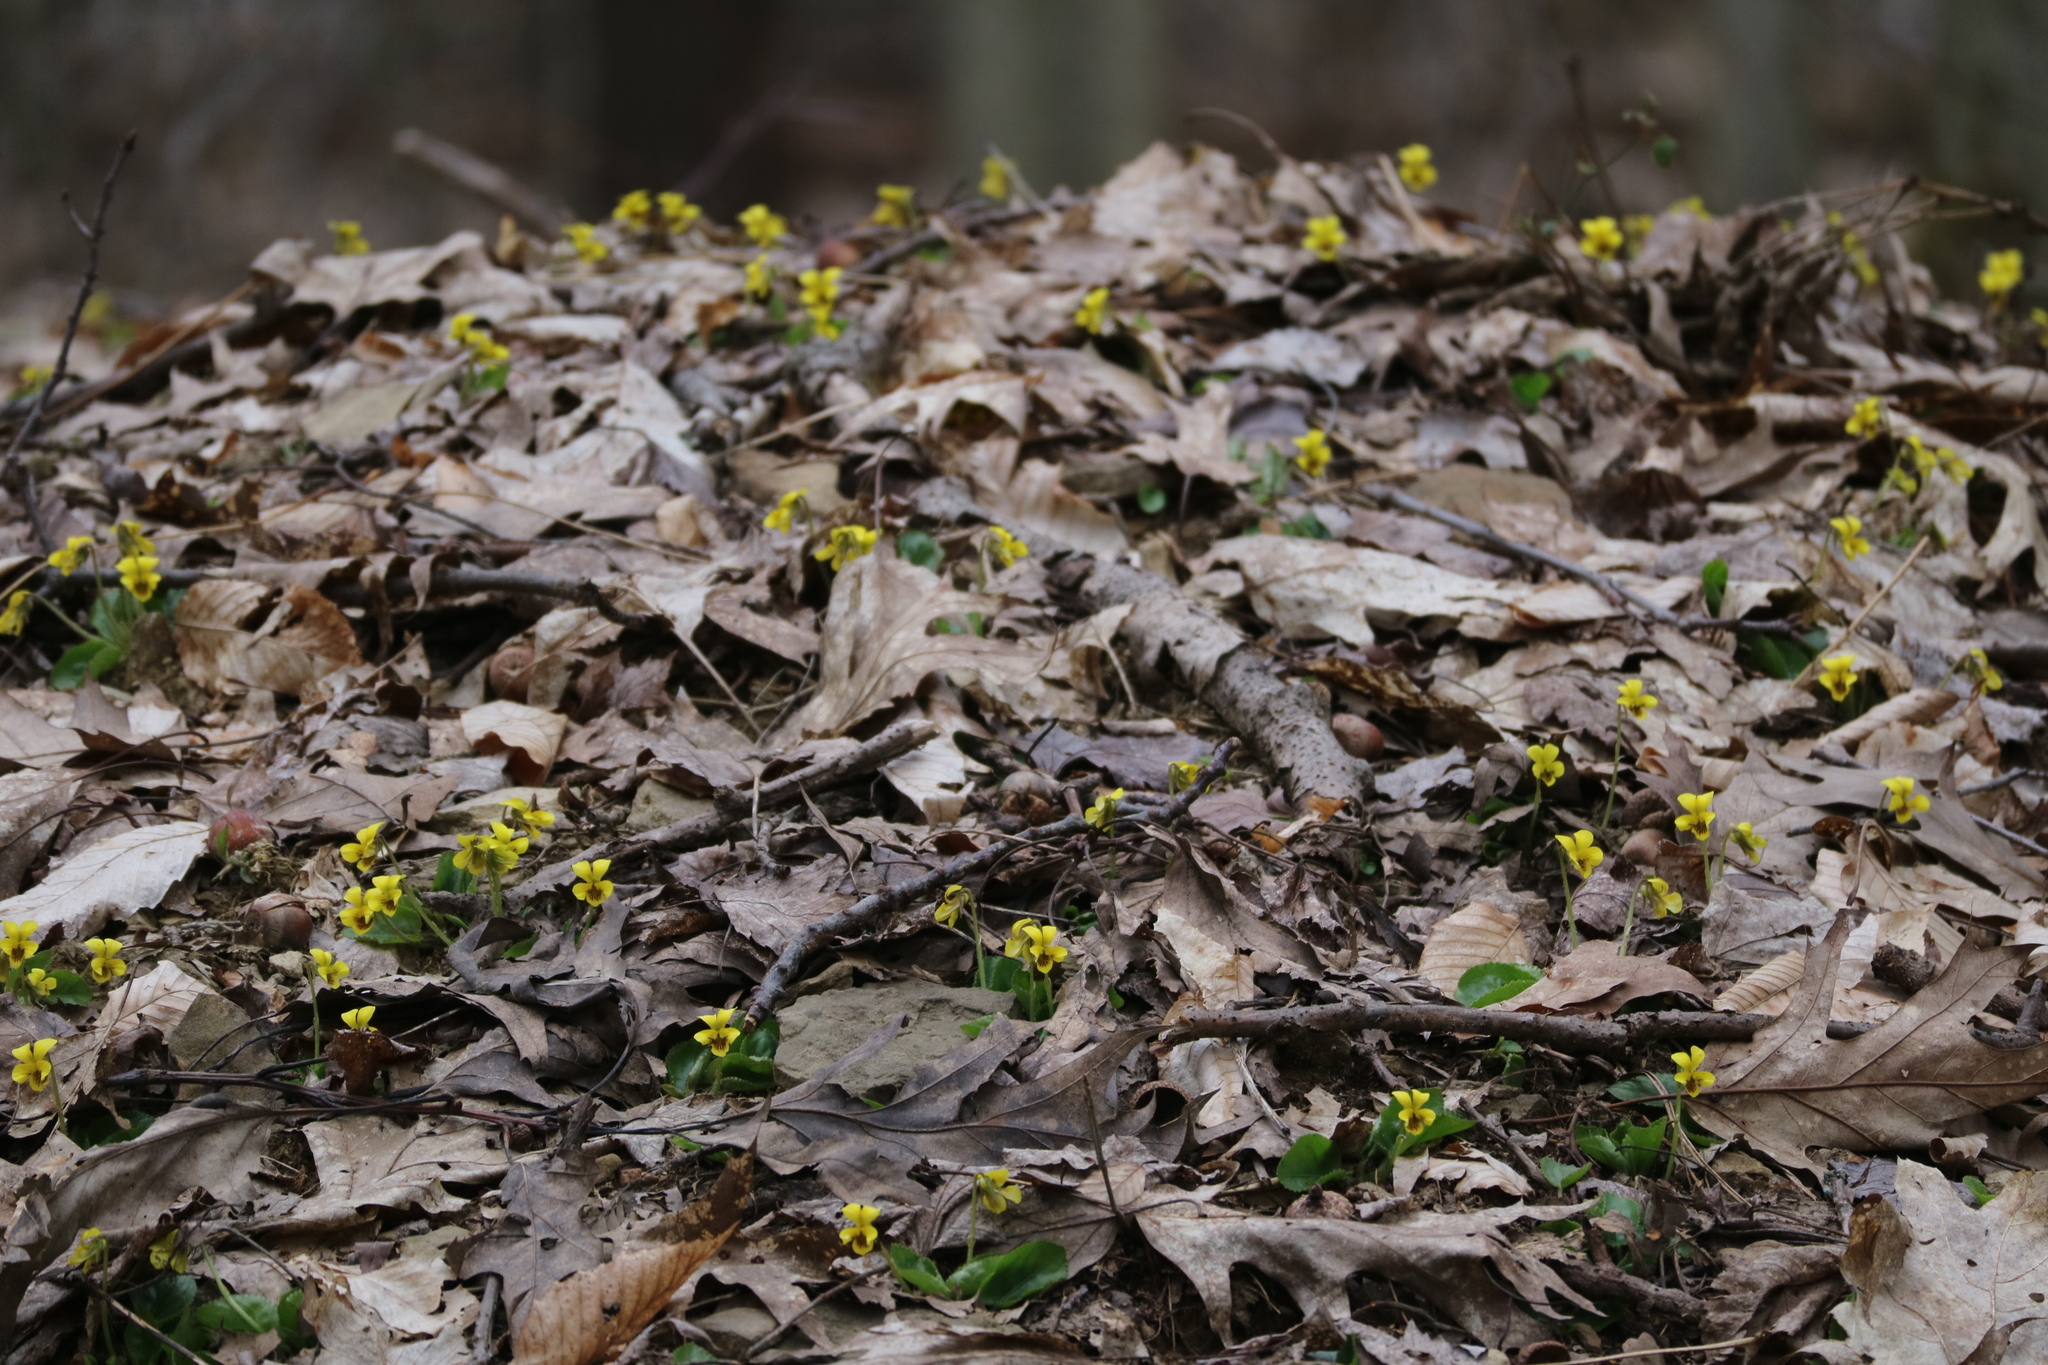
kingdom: Plantae
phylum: Tracheophyta
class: Magnoliopsida
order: Malpighiales
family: Violaceae
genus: Viola
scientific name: Viola rotundifolia
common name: Early yellow violet
